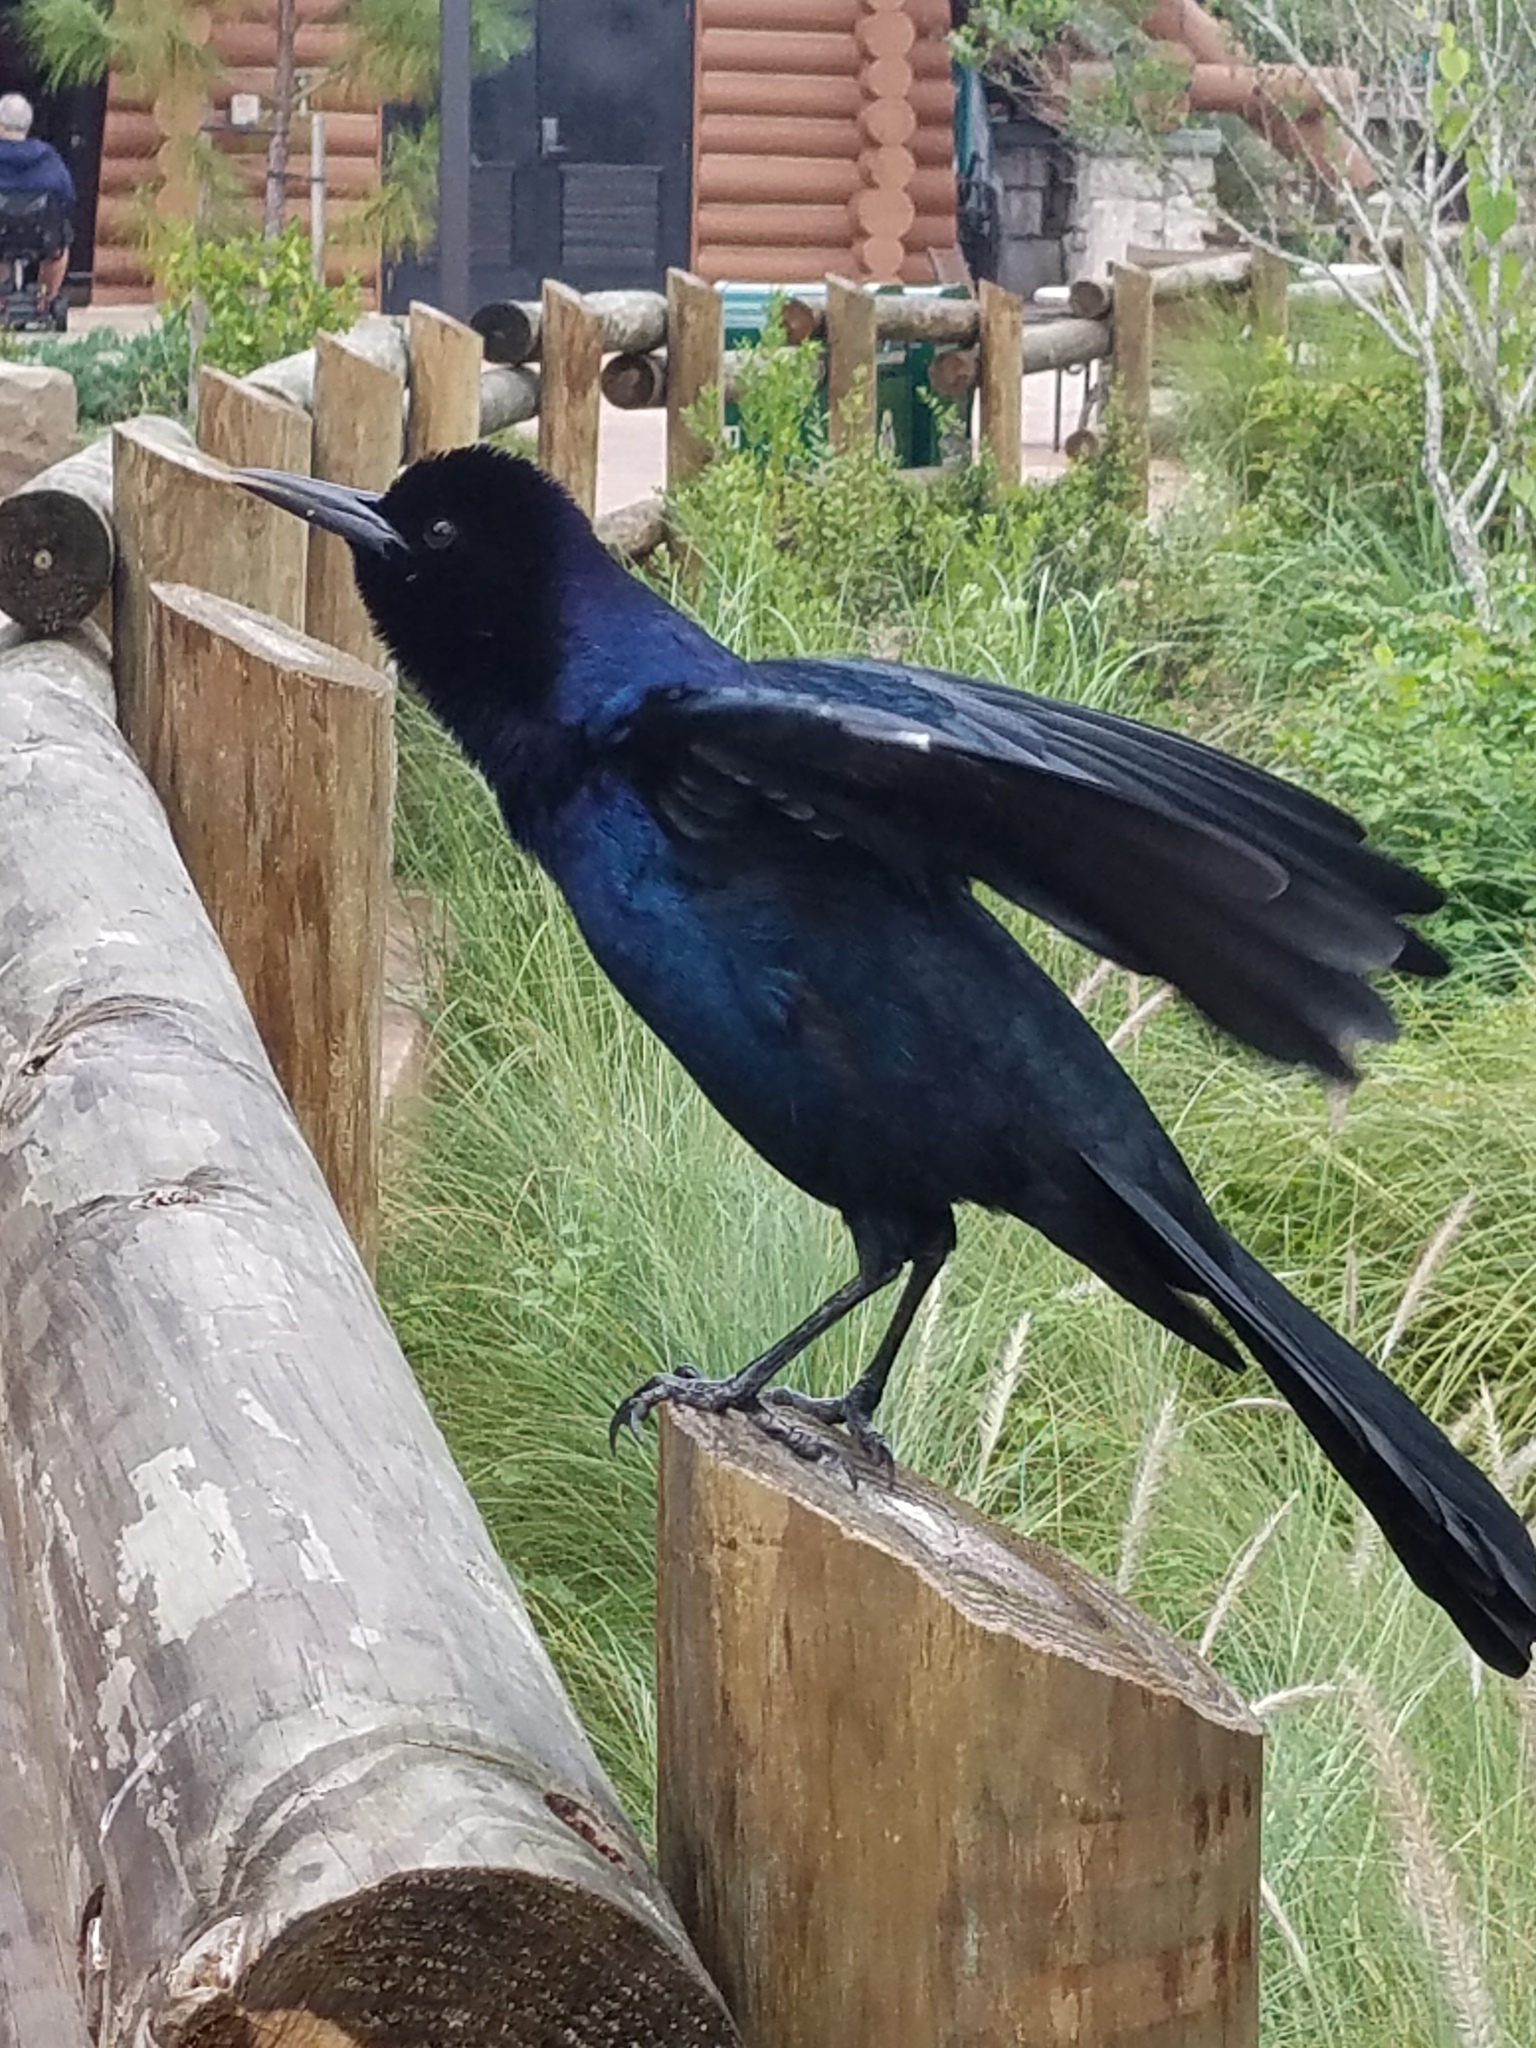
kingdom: Animalia
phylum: Chordata
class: Aves
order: Passeriformes
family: Icteridae
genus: Quiscalus
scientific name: Quiscalus major
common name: Boat-tailed grackle
